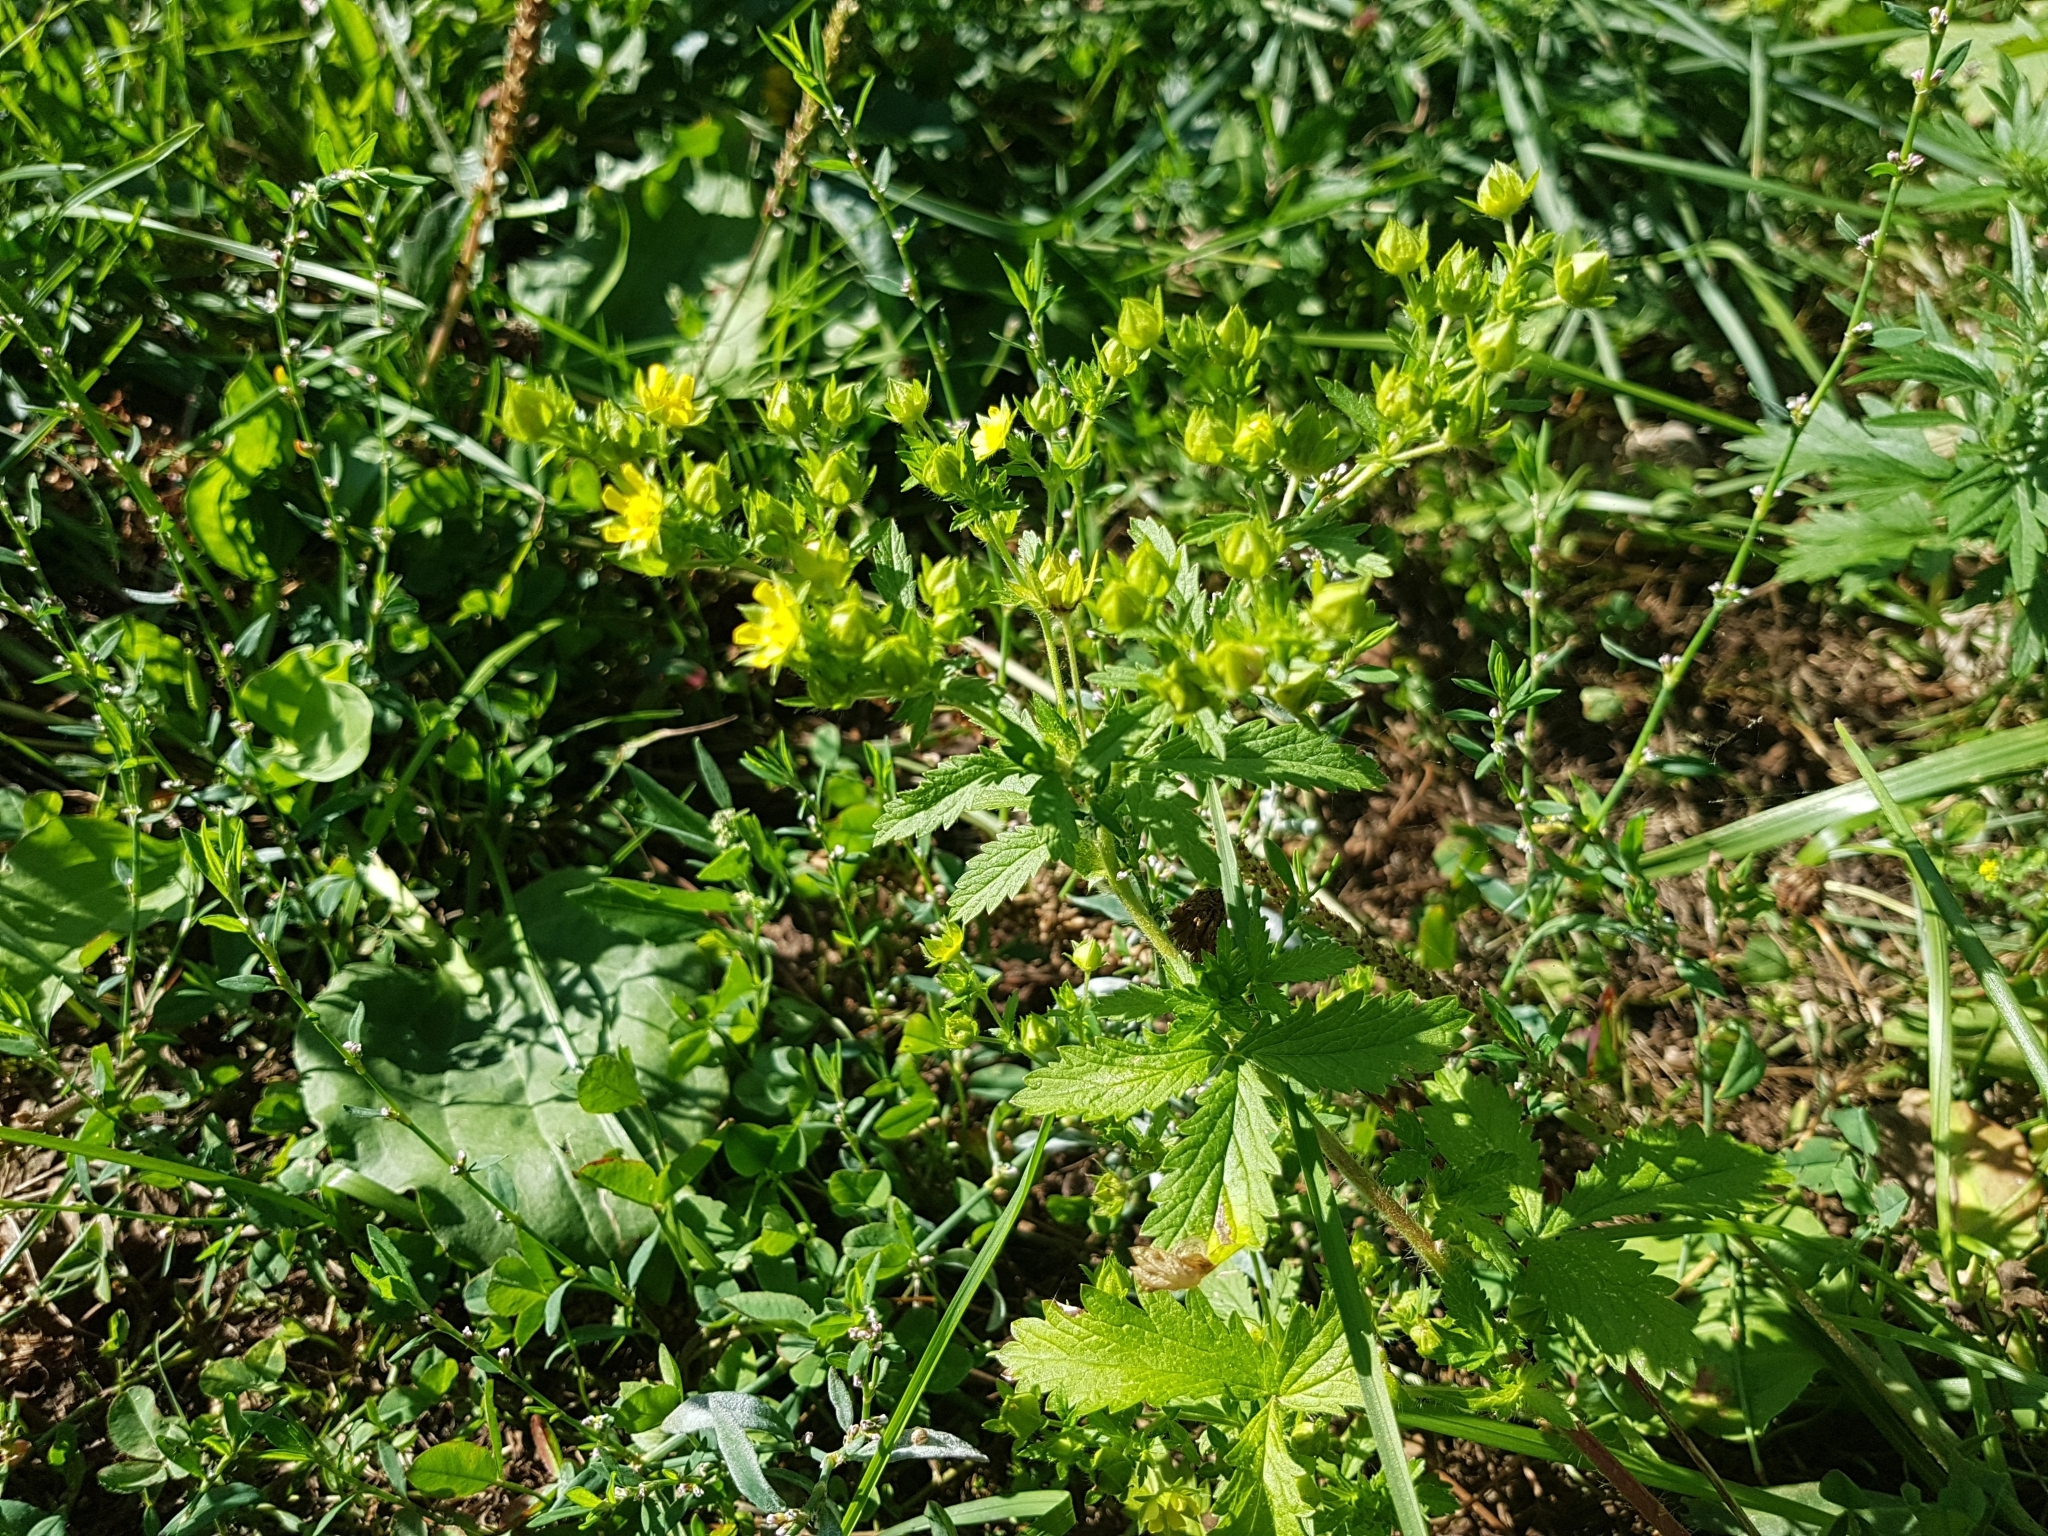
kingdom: Plantae
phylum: Tracheophyta
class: Magnoliopsida
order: Rosales
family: Rosaceae
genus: Potentilla
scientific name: Potentilla norvegica
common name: Ternate-leaved cinquefoil
